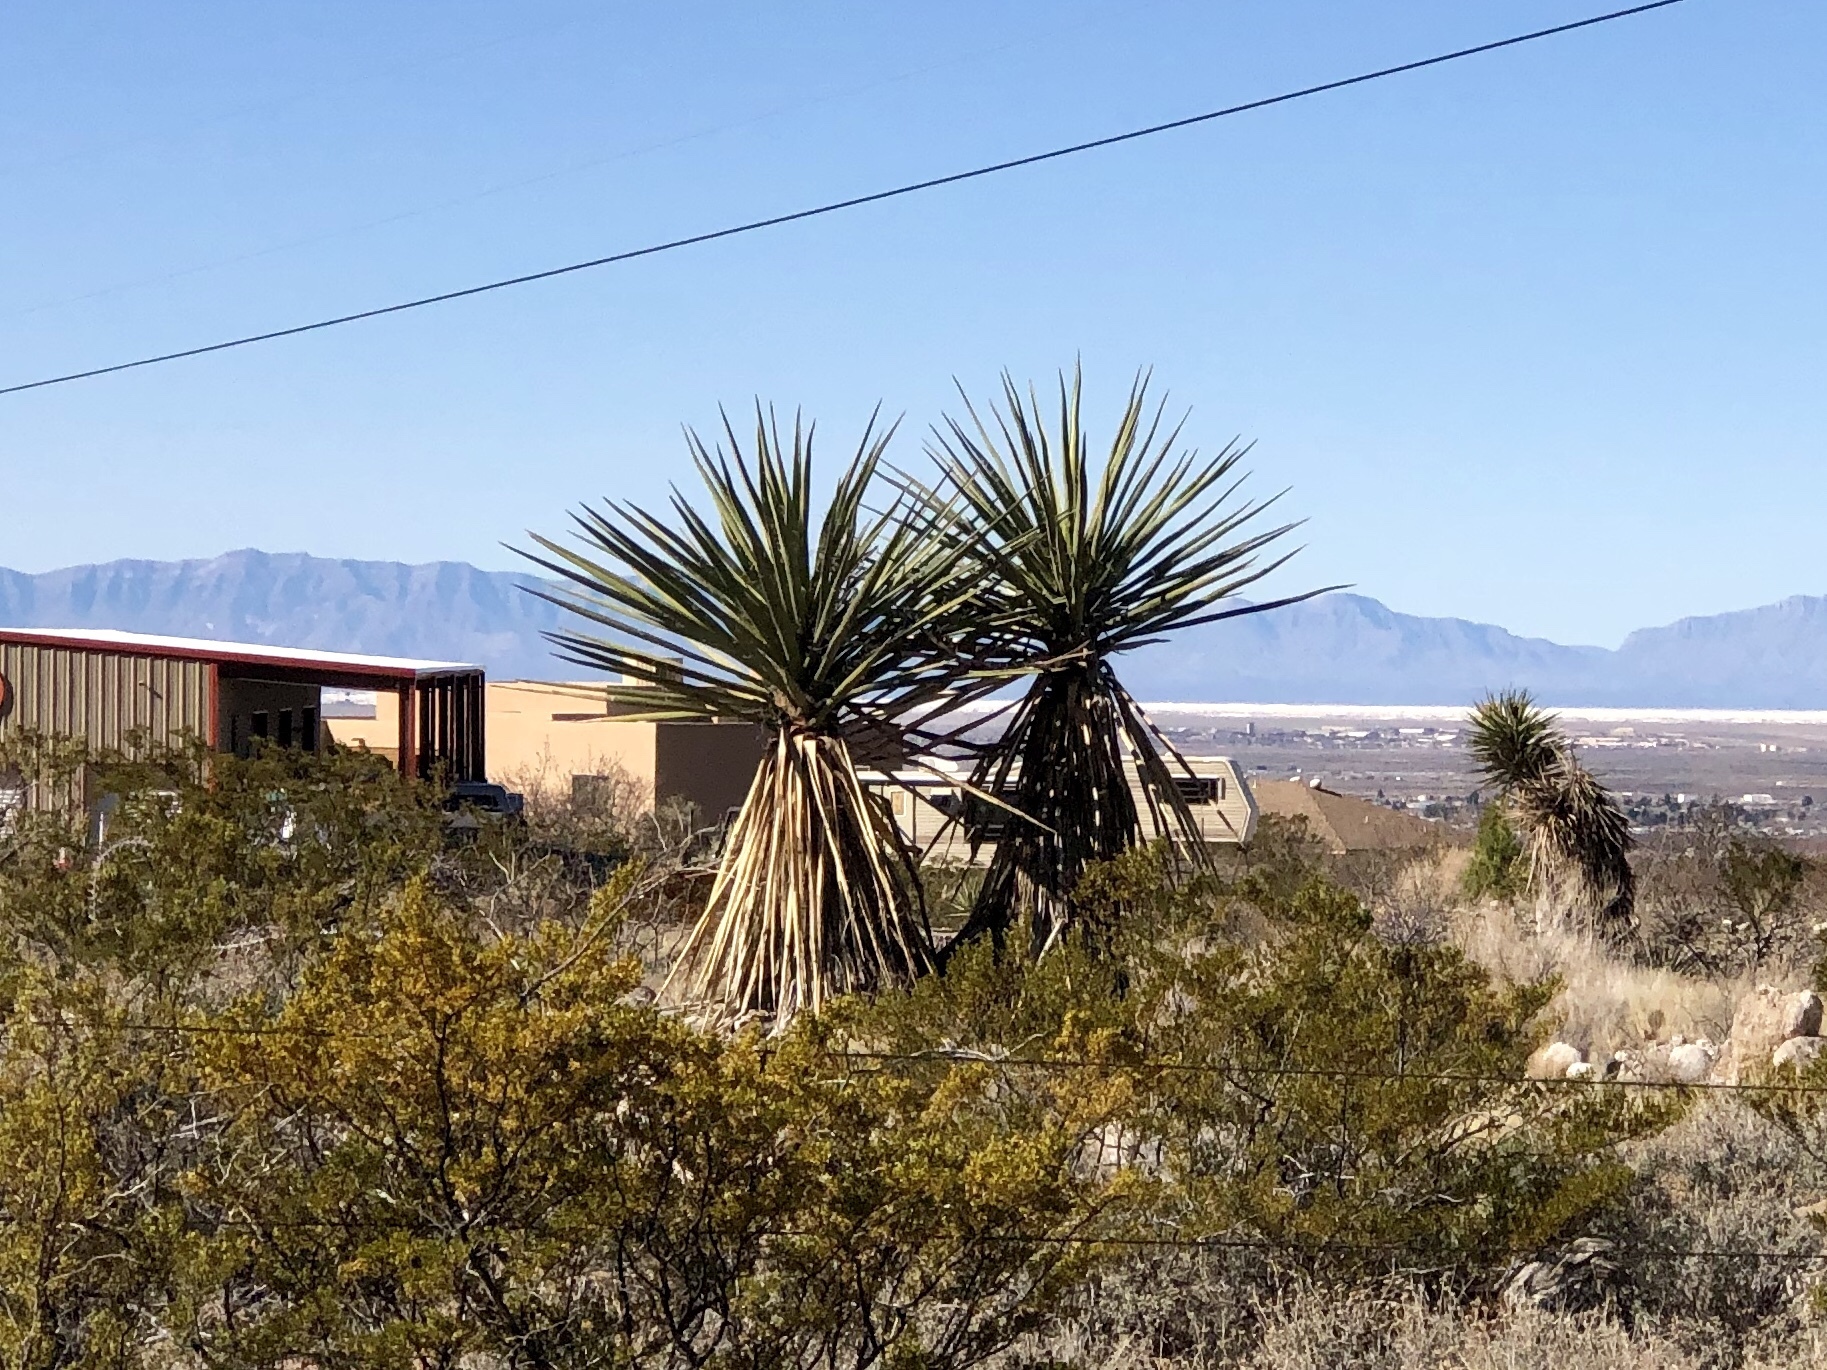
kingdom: Plantae
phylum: Tracheophyta
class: Liliopsida
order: Asparagales
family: Asparagaceae
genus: Yucca
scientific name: Yucca treculiana
